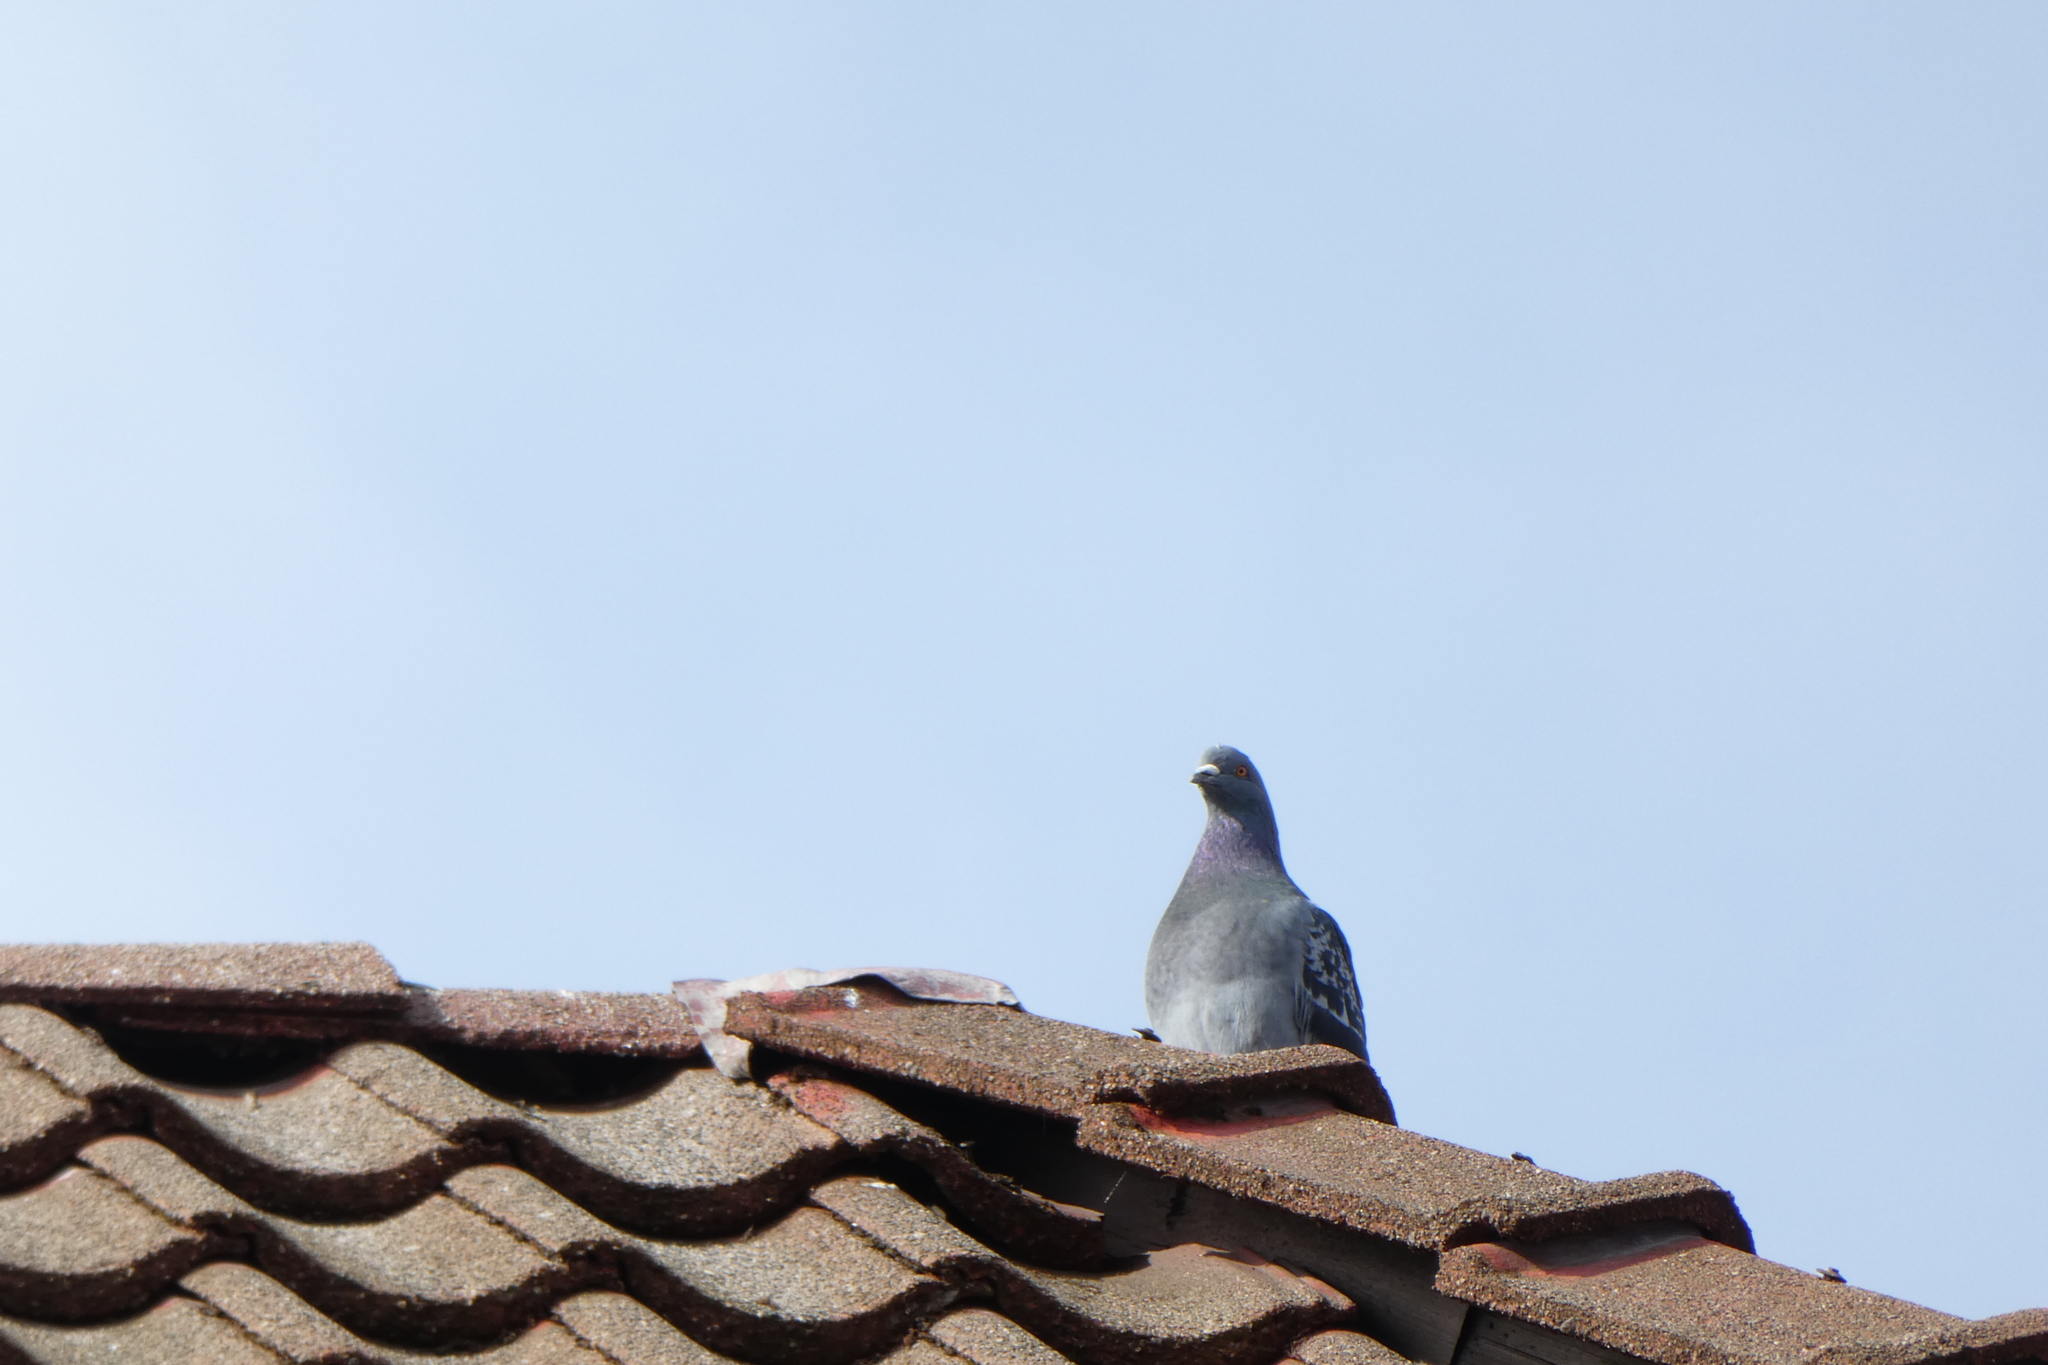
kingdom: Animalia
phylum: Chordata
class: Aves
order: Columbiformes
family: Columbidae
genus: Columba
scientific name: Columba livia
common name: Rock pigeon
